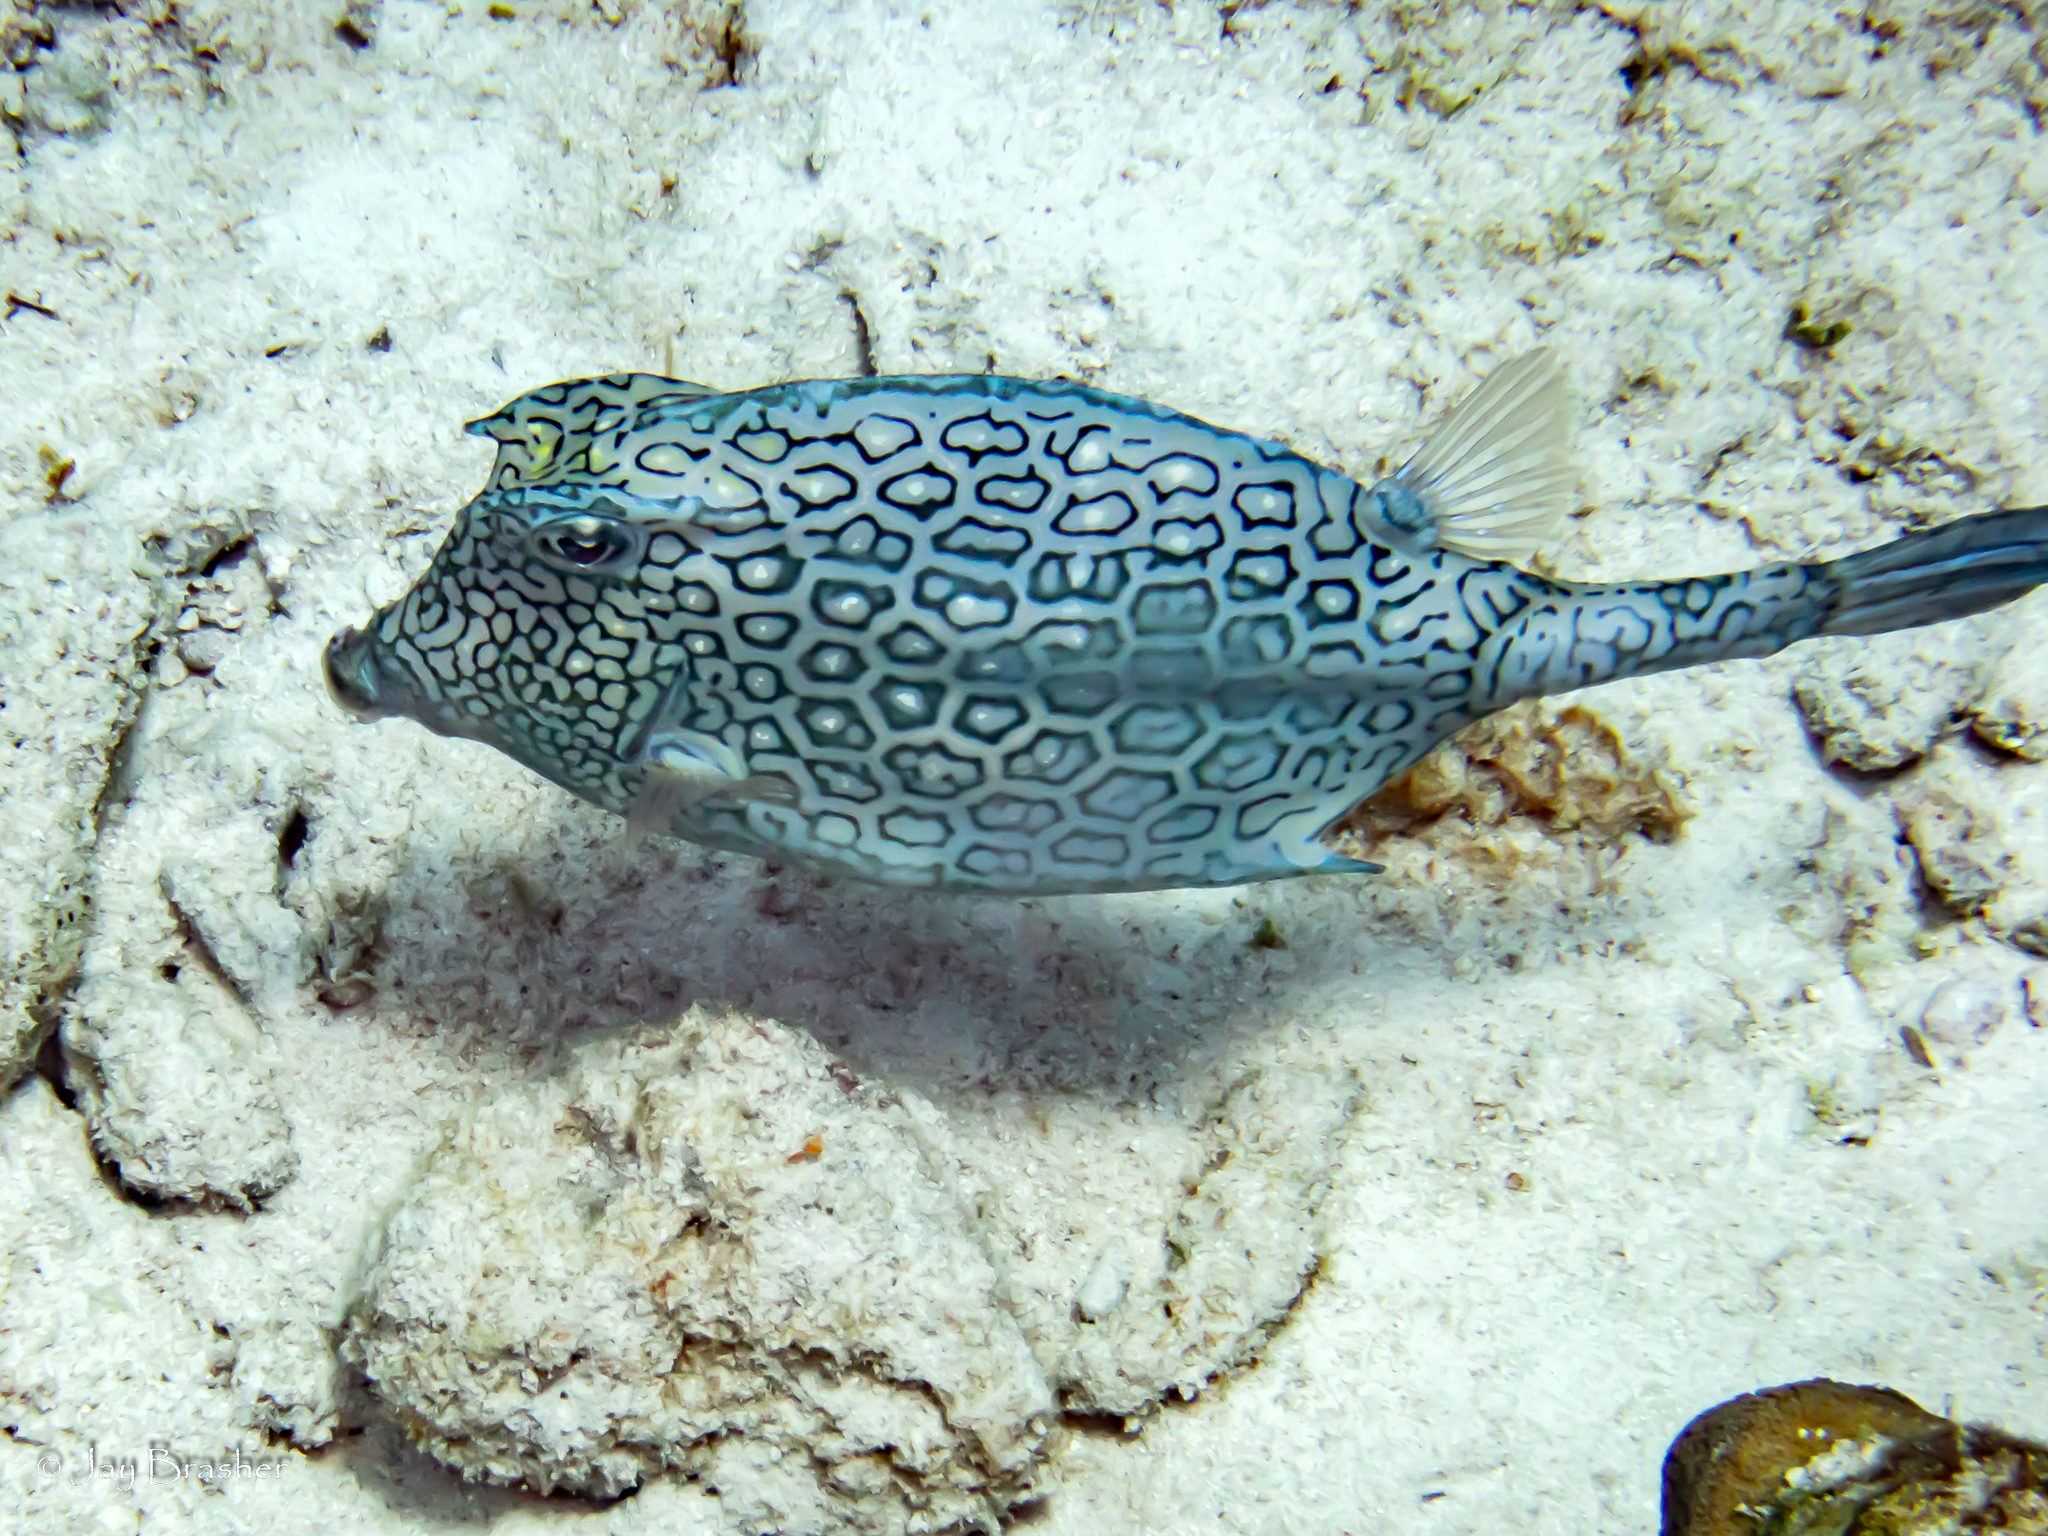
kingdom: Animalia
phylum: Chordata
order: Tetraodontiformes
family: Ostraciidae
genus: Acanthostracion
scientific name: Acanthostracion polygonius
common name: Honeycomb cowfish
